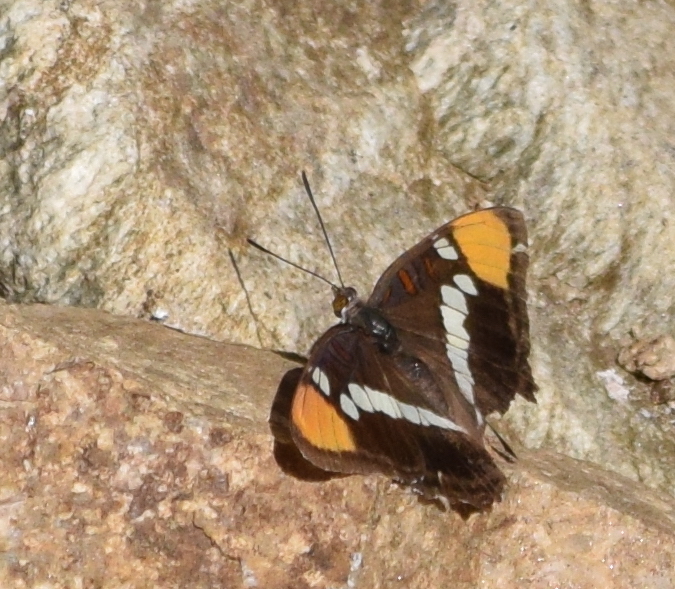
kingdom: Animalia
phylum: Arthropoda
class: Insecta
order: Lepidoptera
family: Nymphalidae
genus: Limenitis
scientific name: Limenitis bredowii
